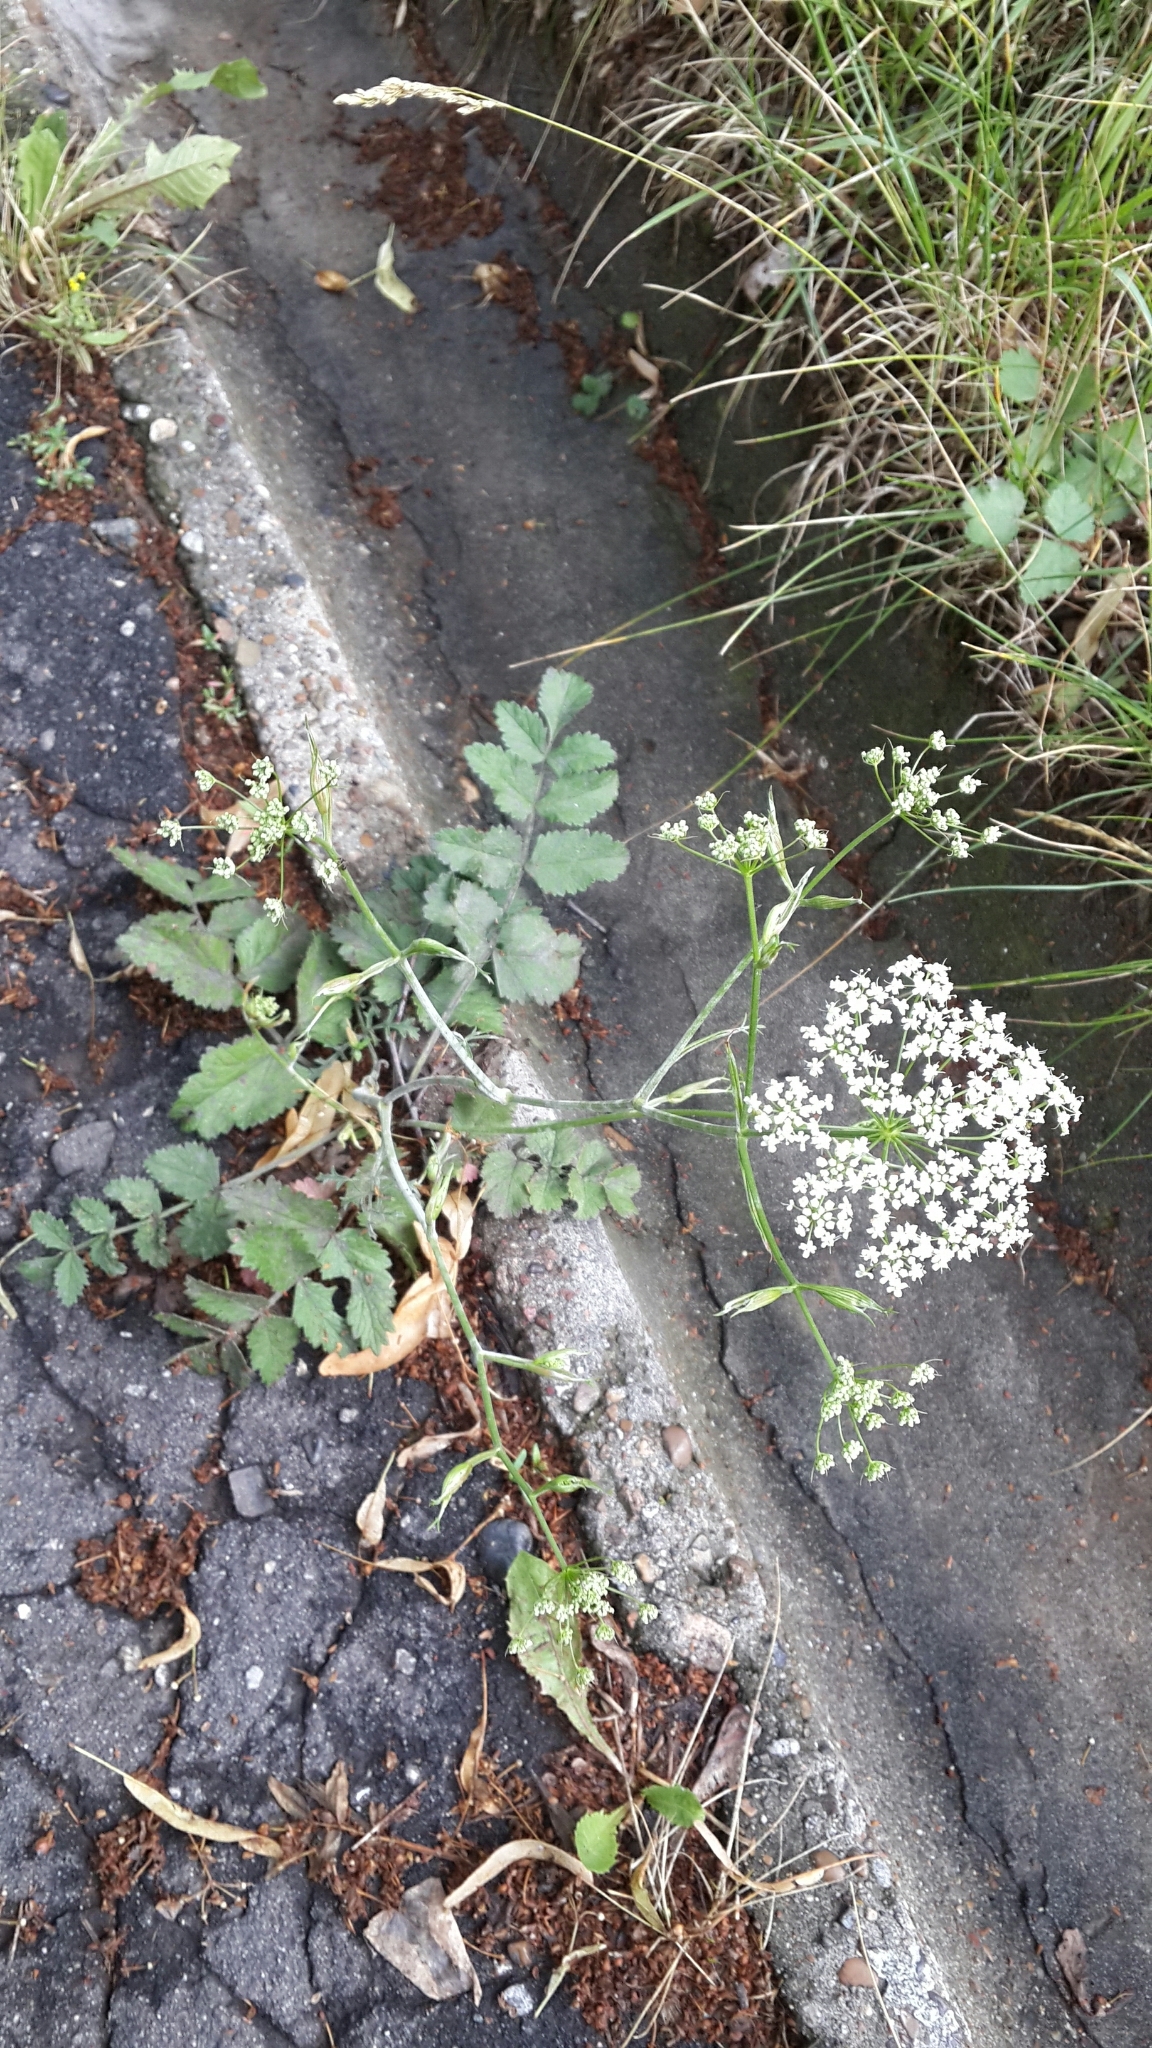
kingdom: Plantae
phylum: Tracheophyta
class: Magnoliopsida
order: Apiales
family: Apiaceae
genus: Pimpinella
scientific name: Pimpinella saxifraga
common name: Burnet-saxifrage
